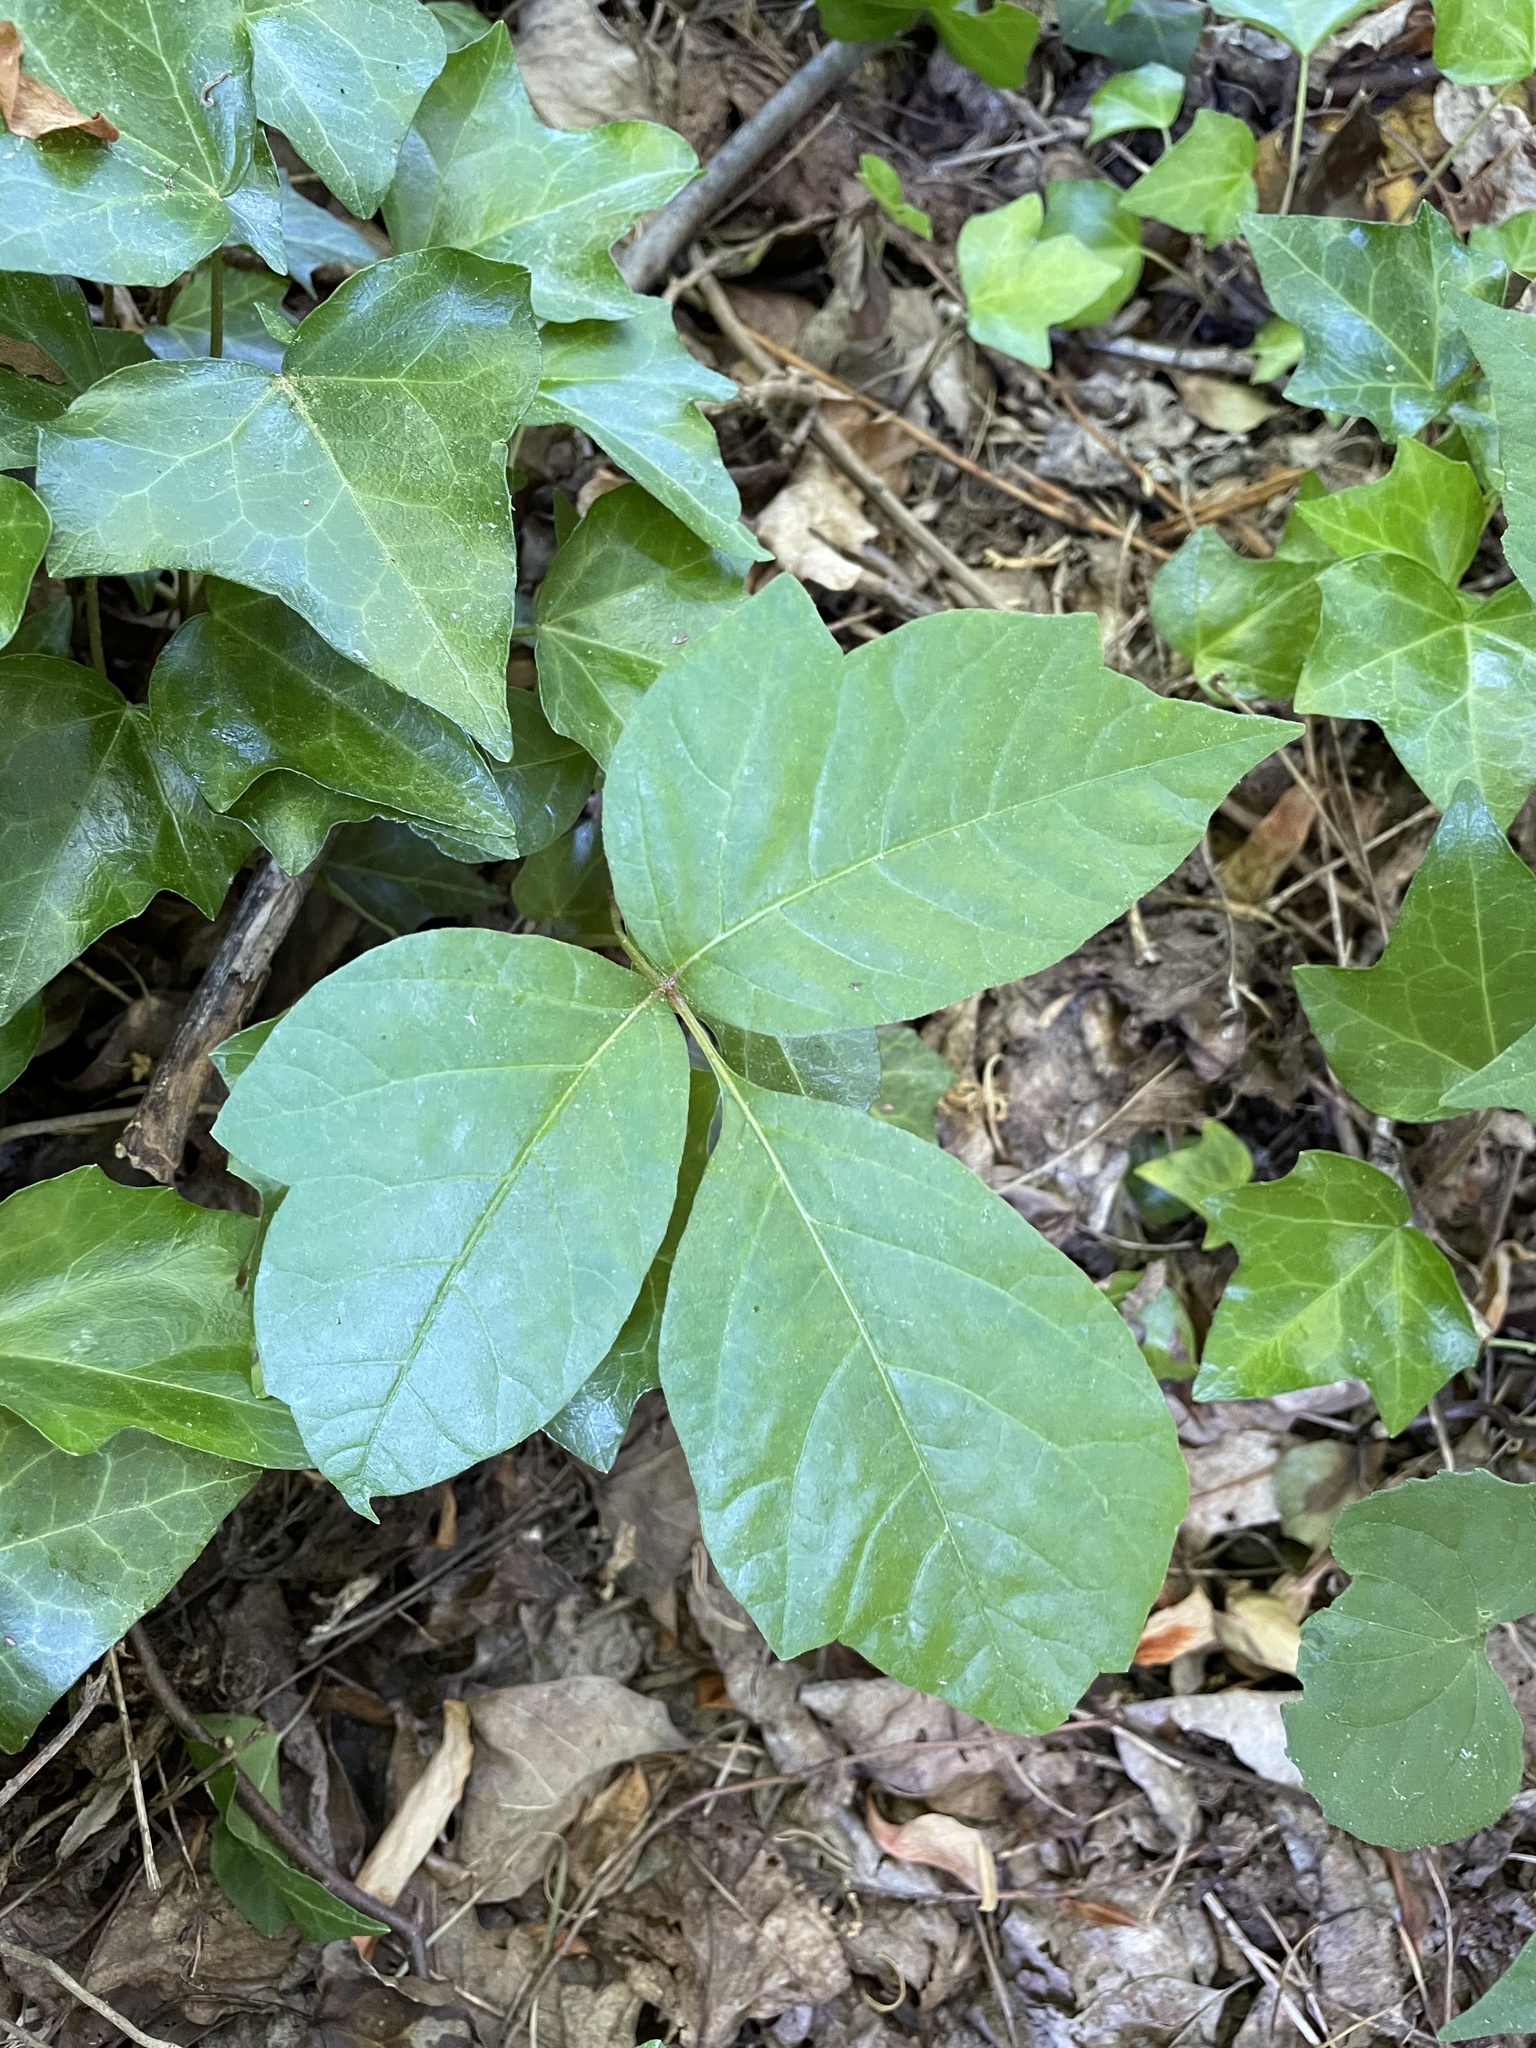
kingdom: Plantae
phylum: Tracheophyta
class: Magnoliopsida
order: Sapindales
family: Anacardiaceae
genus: Toxicodendron
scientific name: Toxicodendron radicans
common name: Poison ivy
